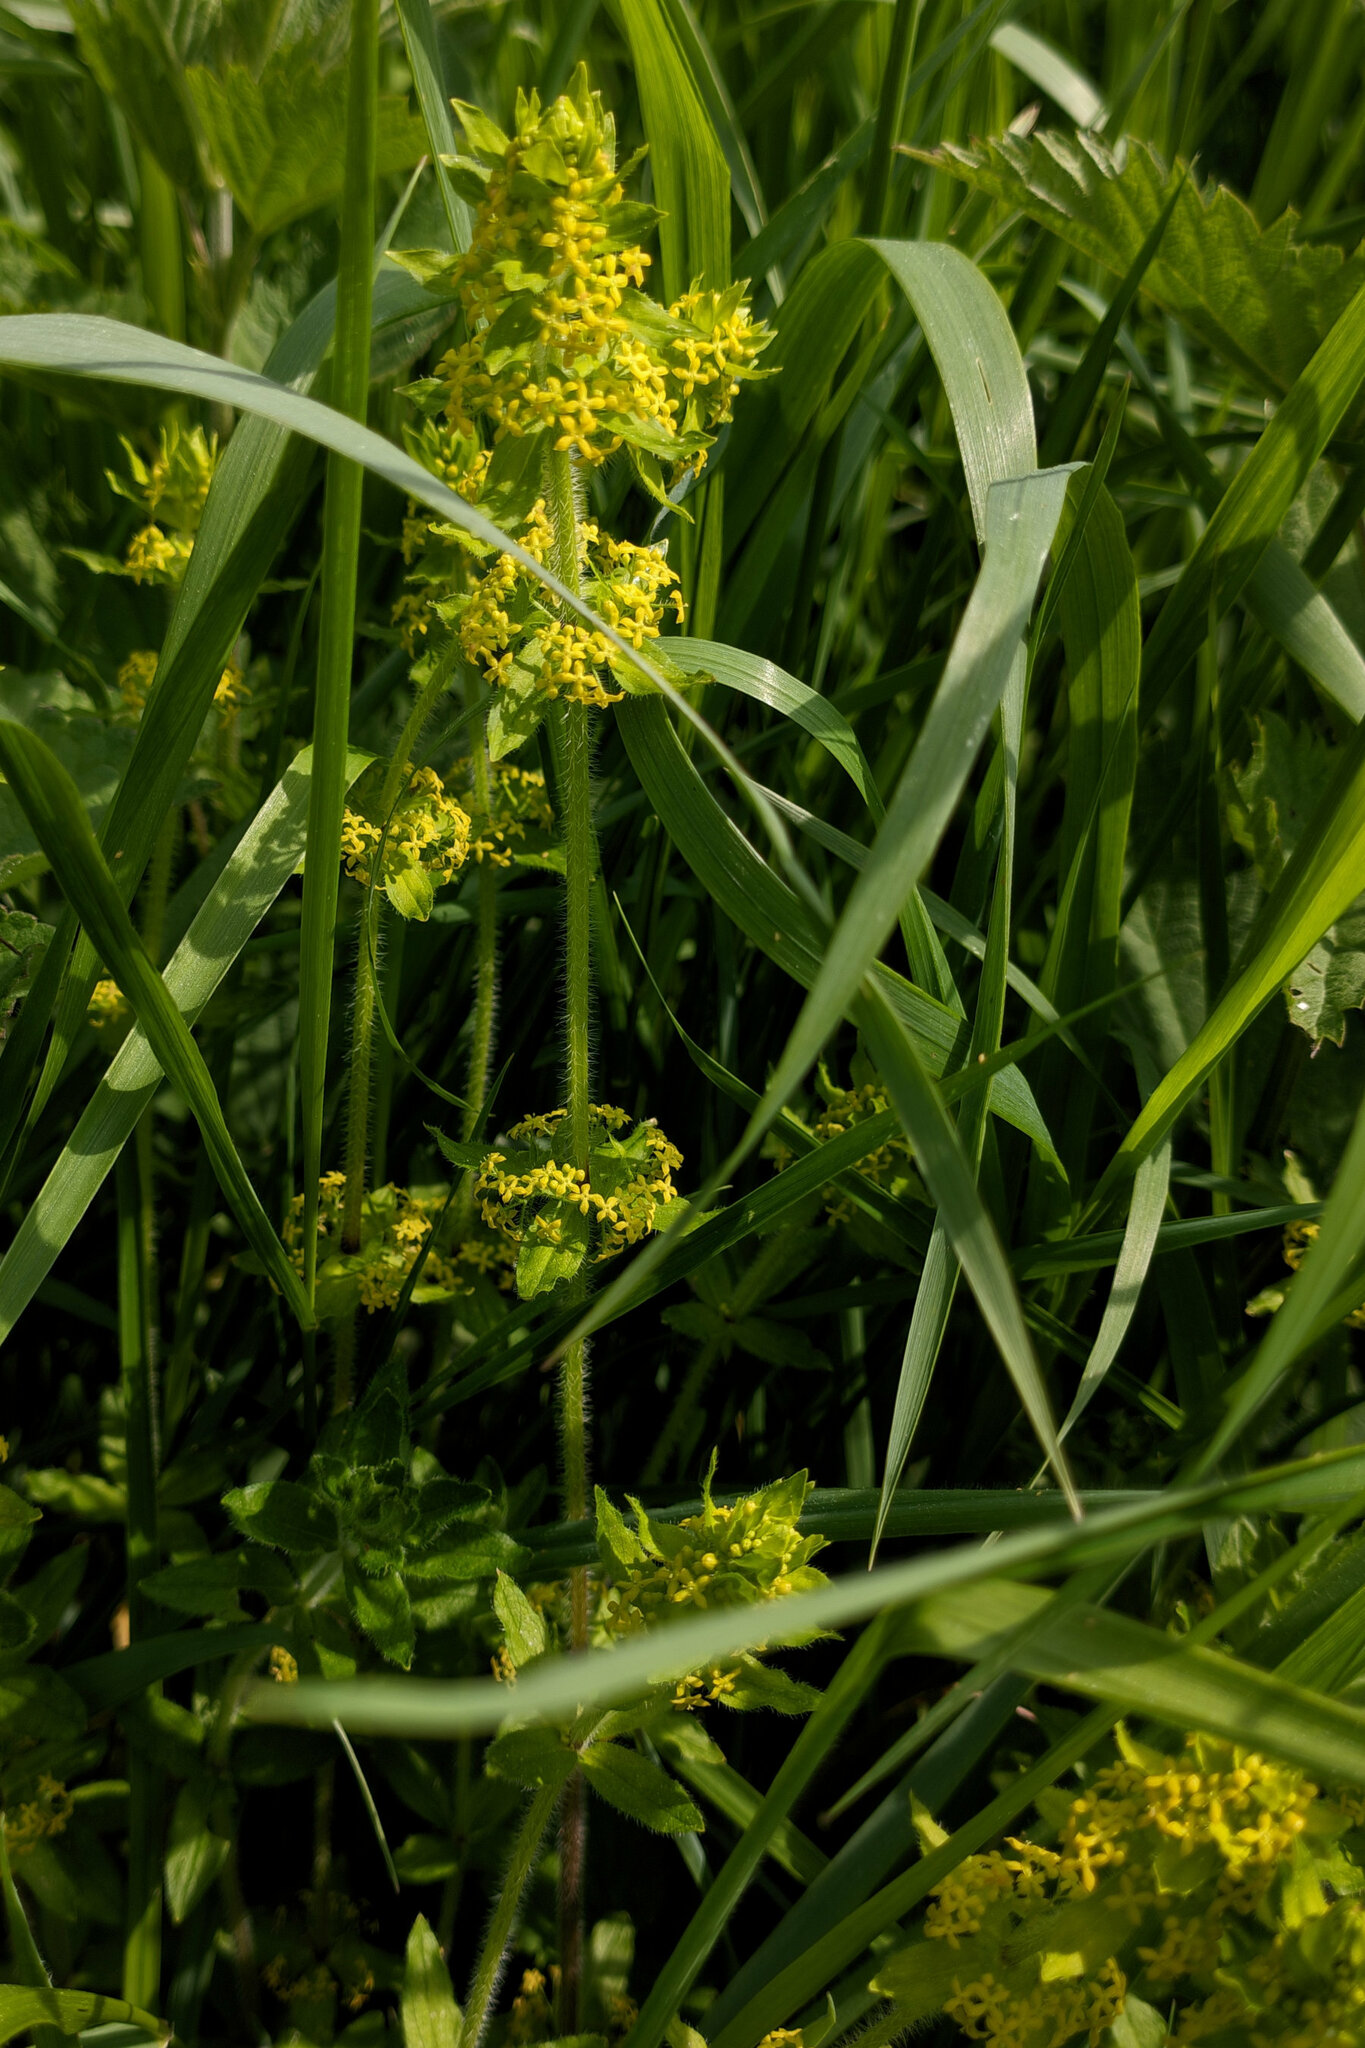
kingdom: Plantae
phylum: Tracheophyta
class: Magnoliopsida
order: Gentianales
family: Rubiaceae
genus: Cruciata
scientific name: Cruciata laevipes
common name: Crosswort
